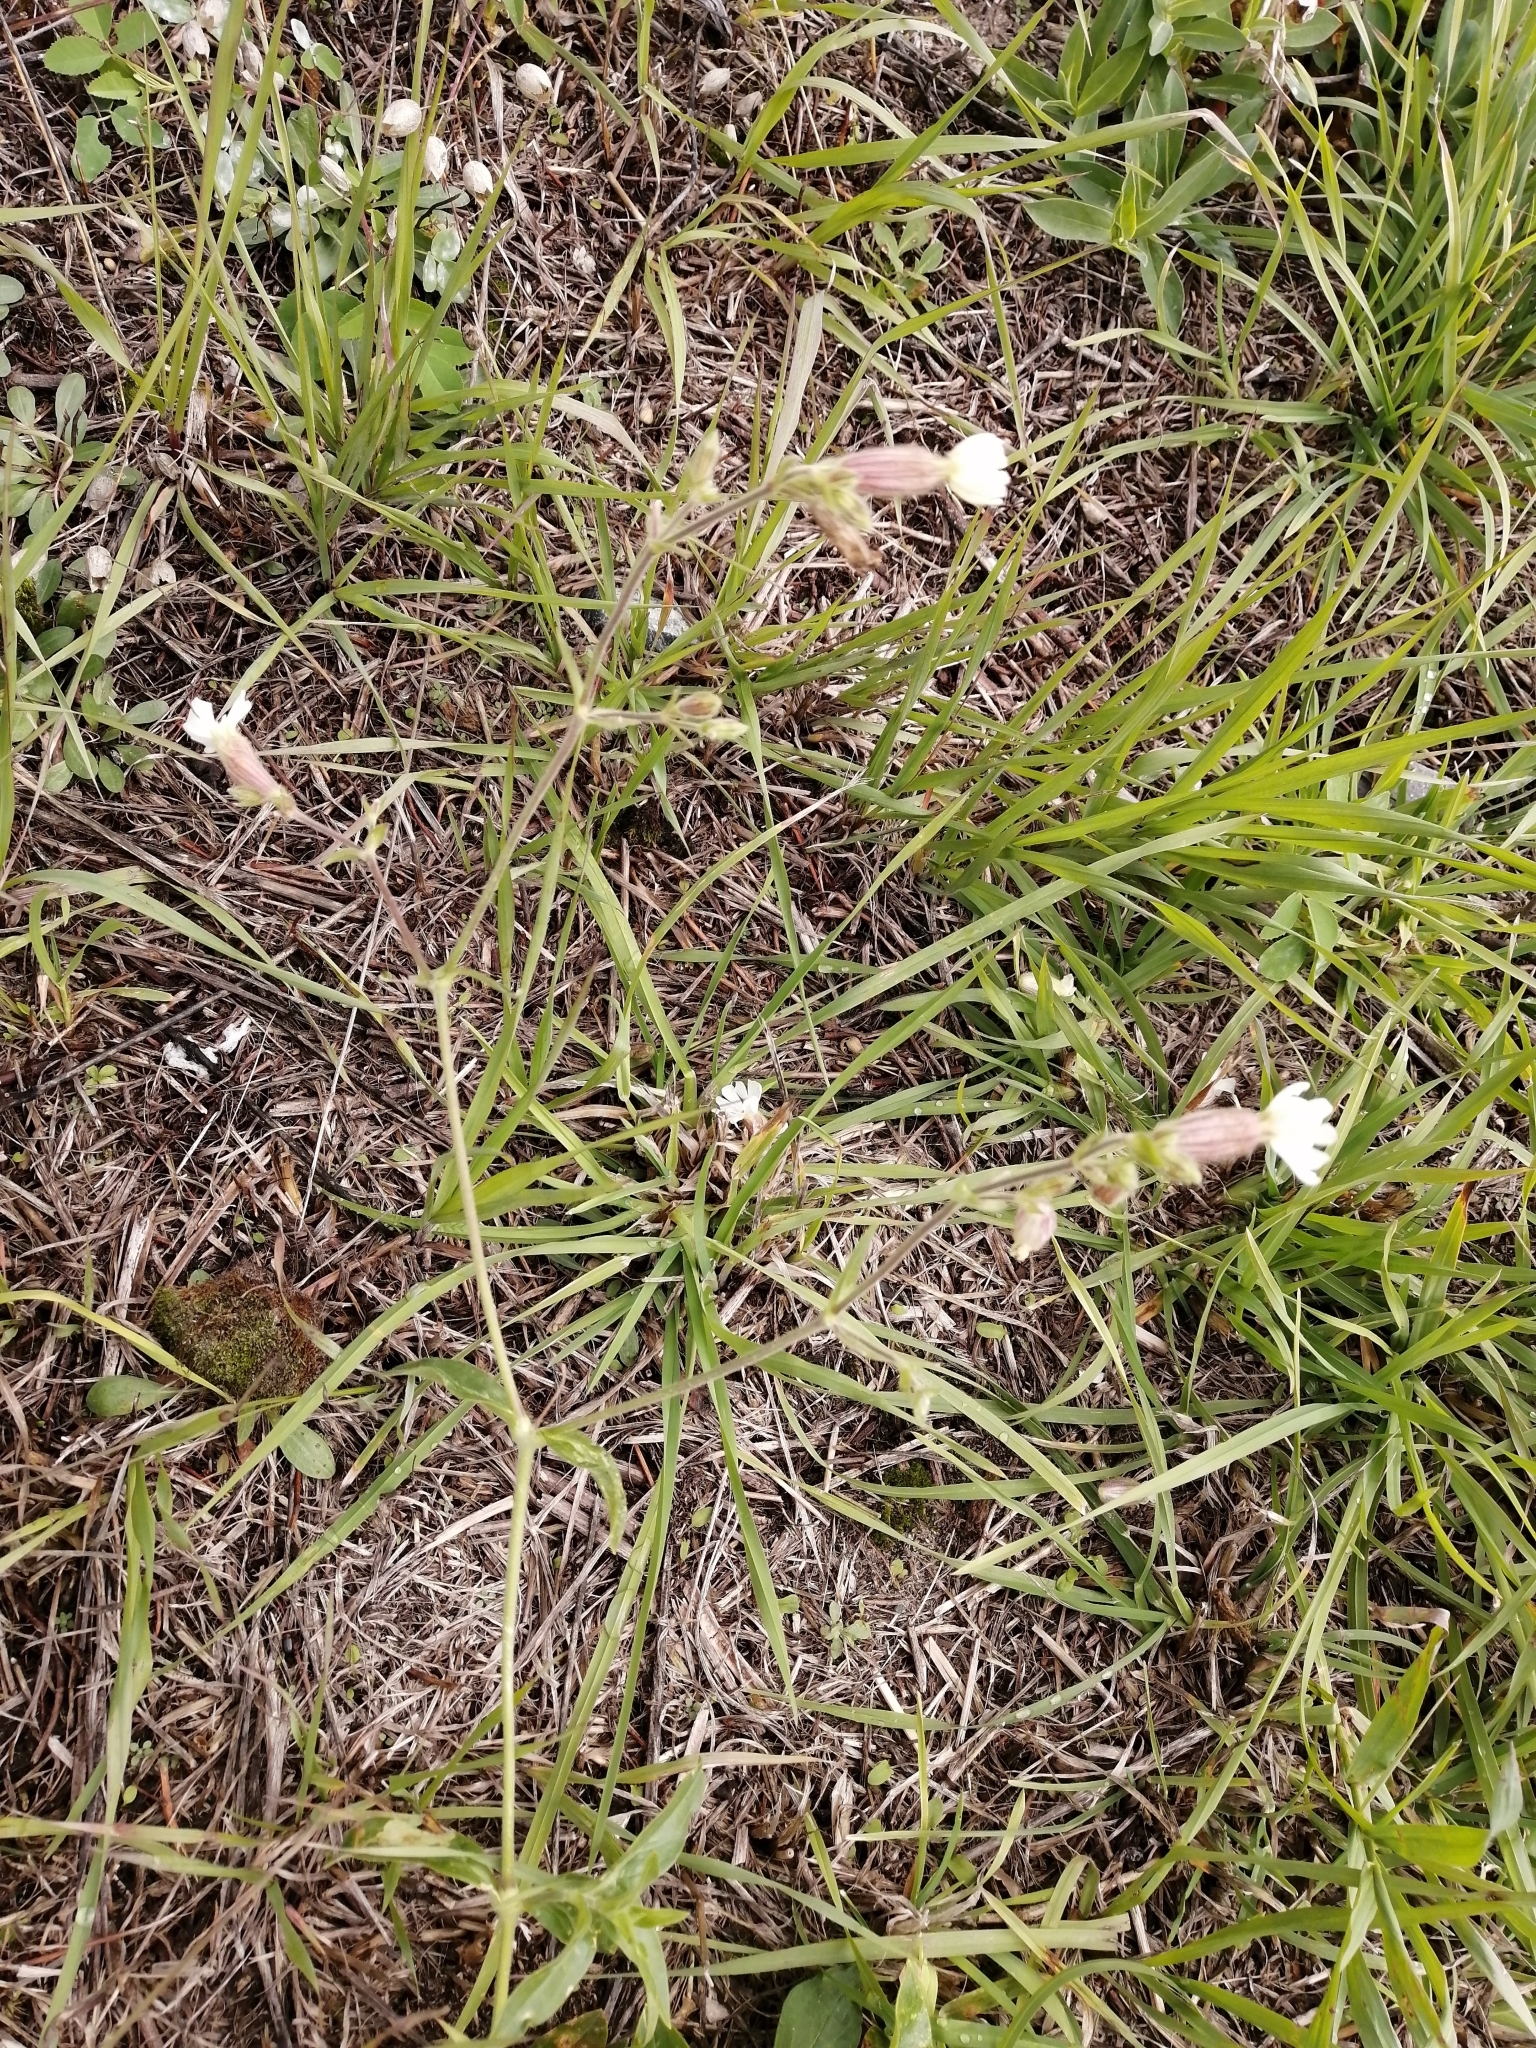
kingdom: Plantae
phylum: Tracheophyta
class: Magnoliopsida
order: Caryophyllales
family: Caryophyllaceae
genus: Silene
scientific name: Silene latifolia
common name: White campion
